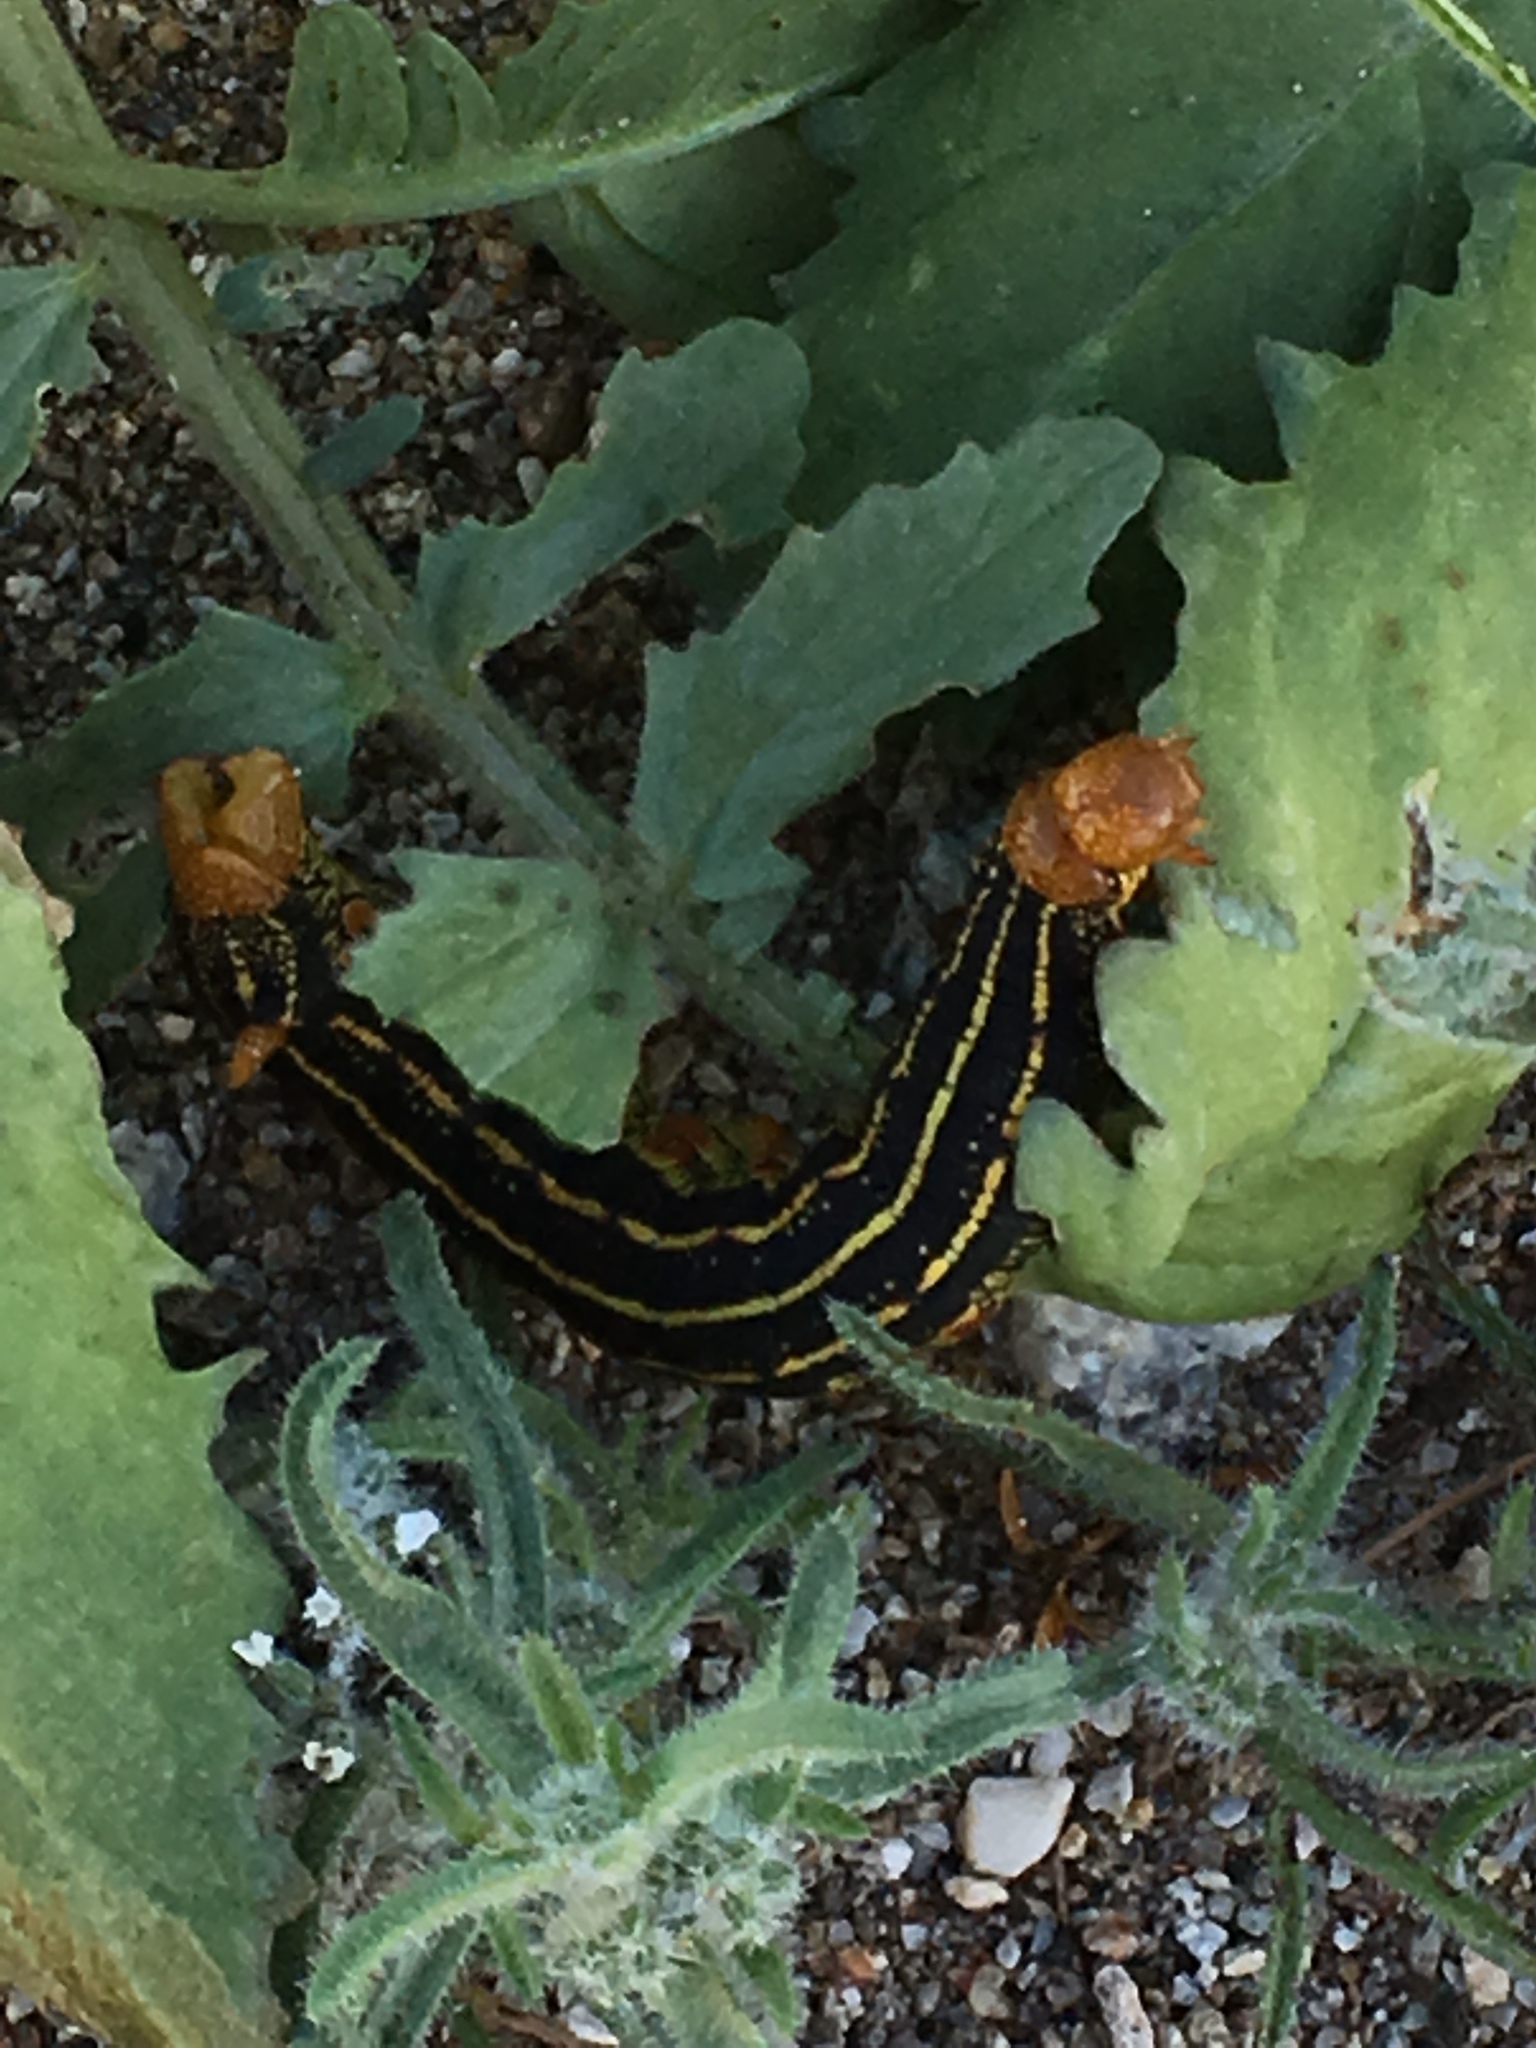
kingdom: Animalia
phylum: Arthropoda
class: Insecta
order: Lepidoptera
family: Sphingidae
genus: Hyles
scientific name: Hyles lineata
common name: White-lined sphinx
